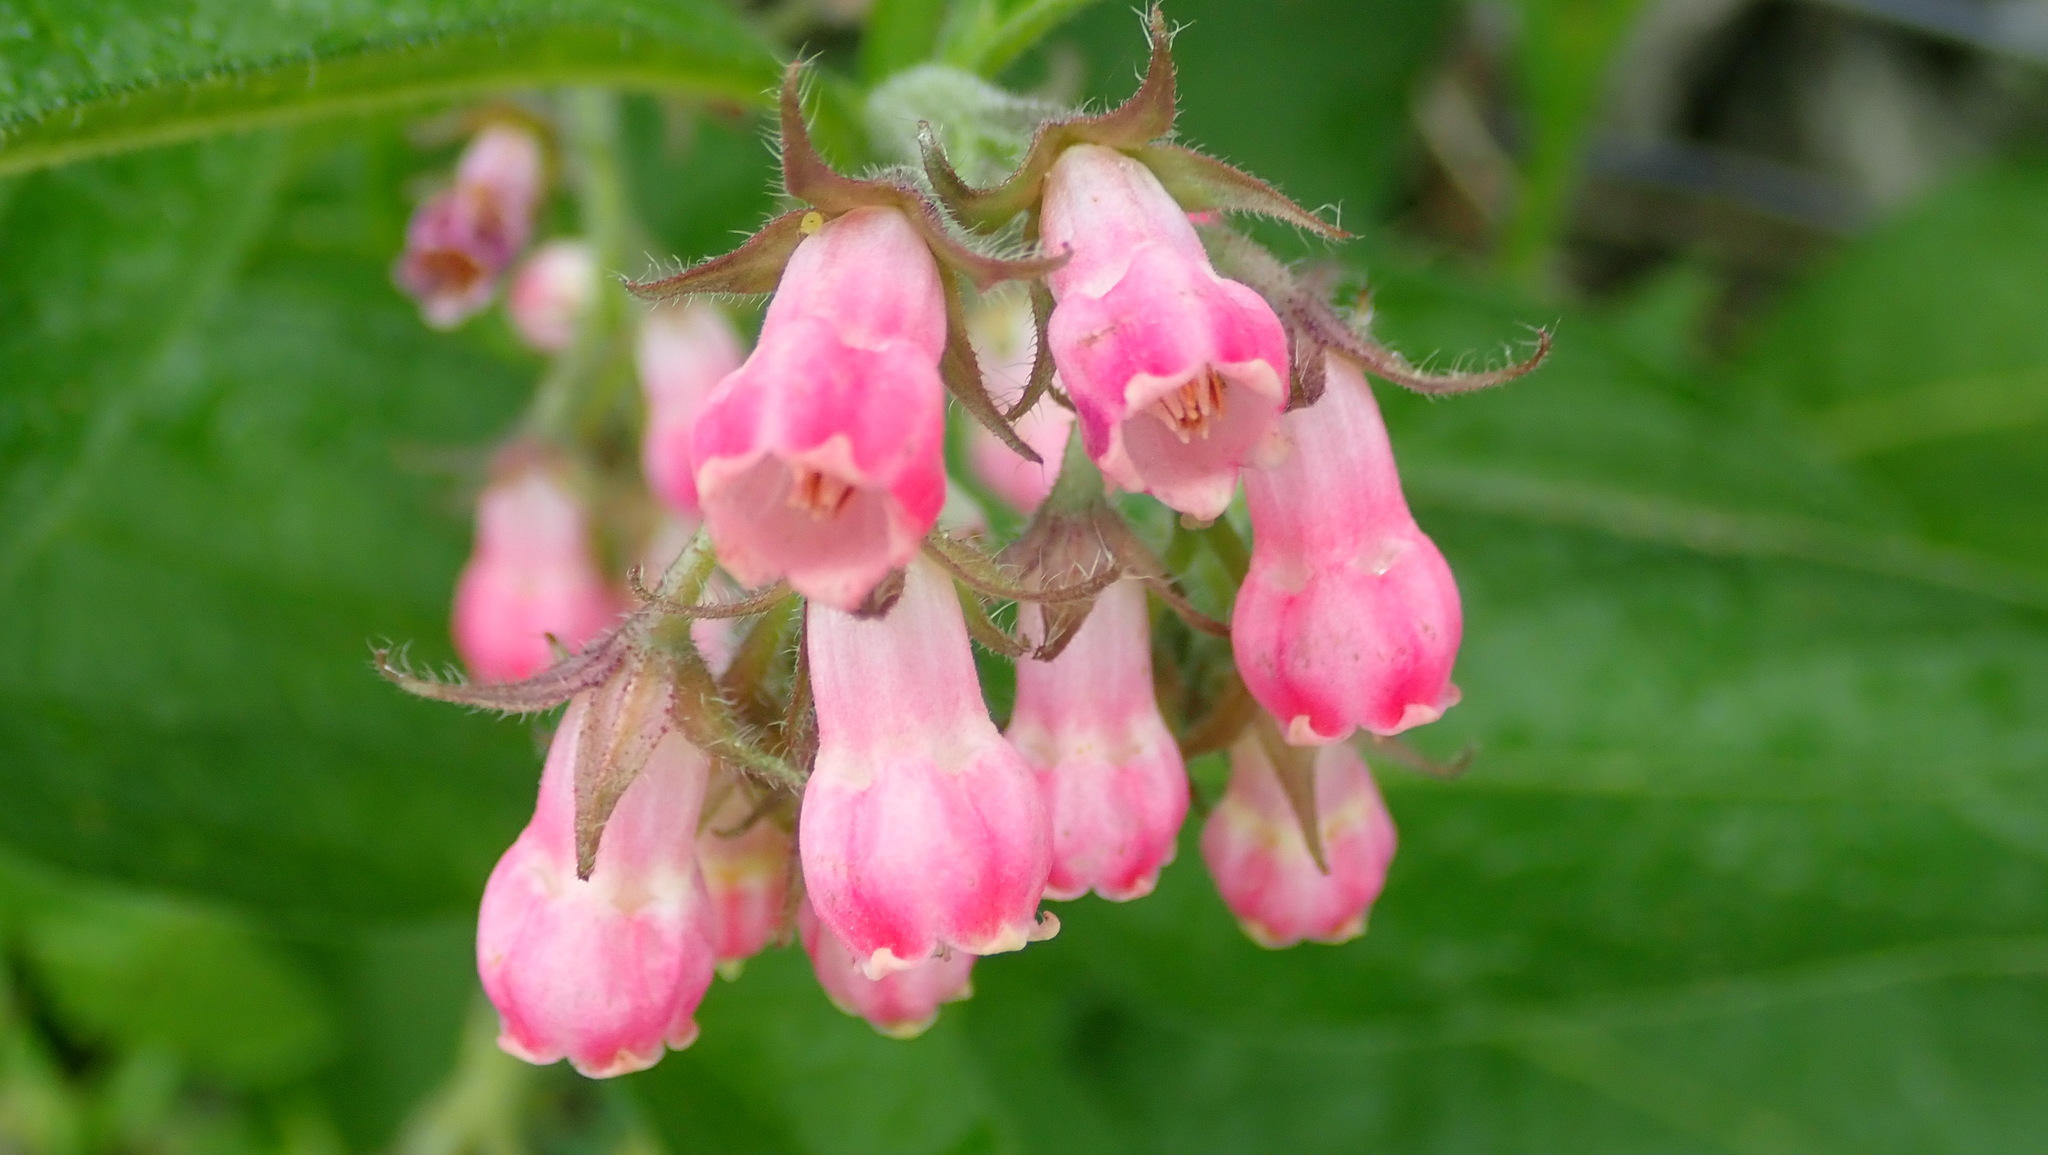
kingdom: Plantae
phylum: Tracheophyta
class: Magnoliopsida
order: Boraginales
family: Boraginaceae
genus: Symphytum
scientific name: Symphytum officinale
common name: Common comfrey
